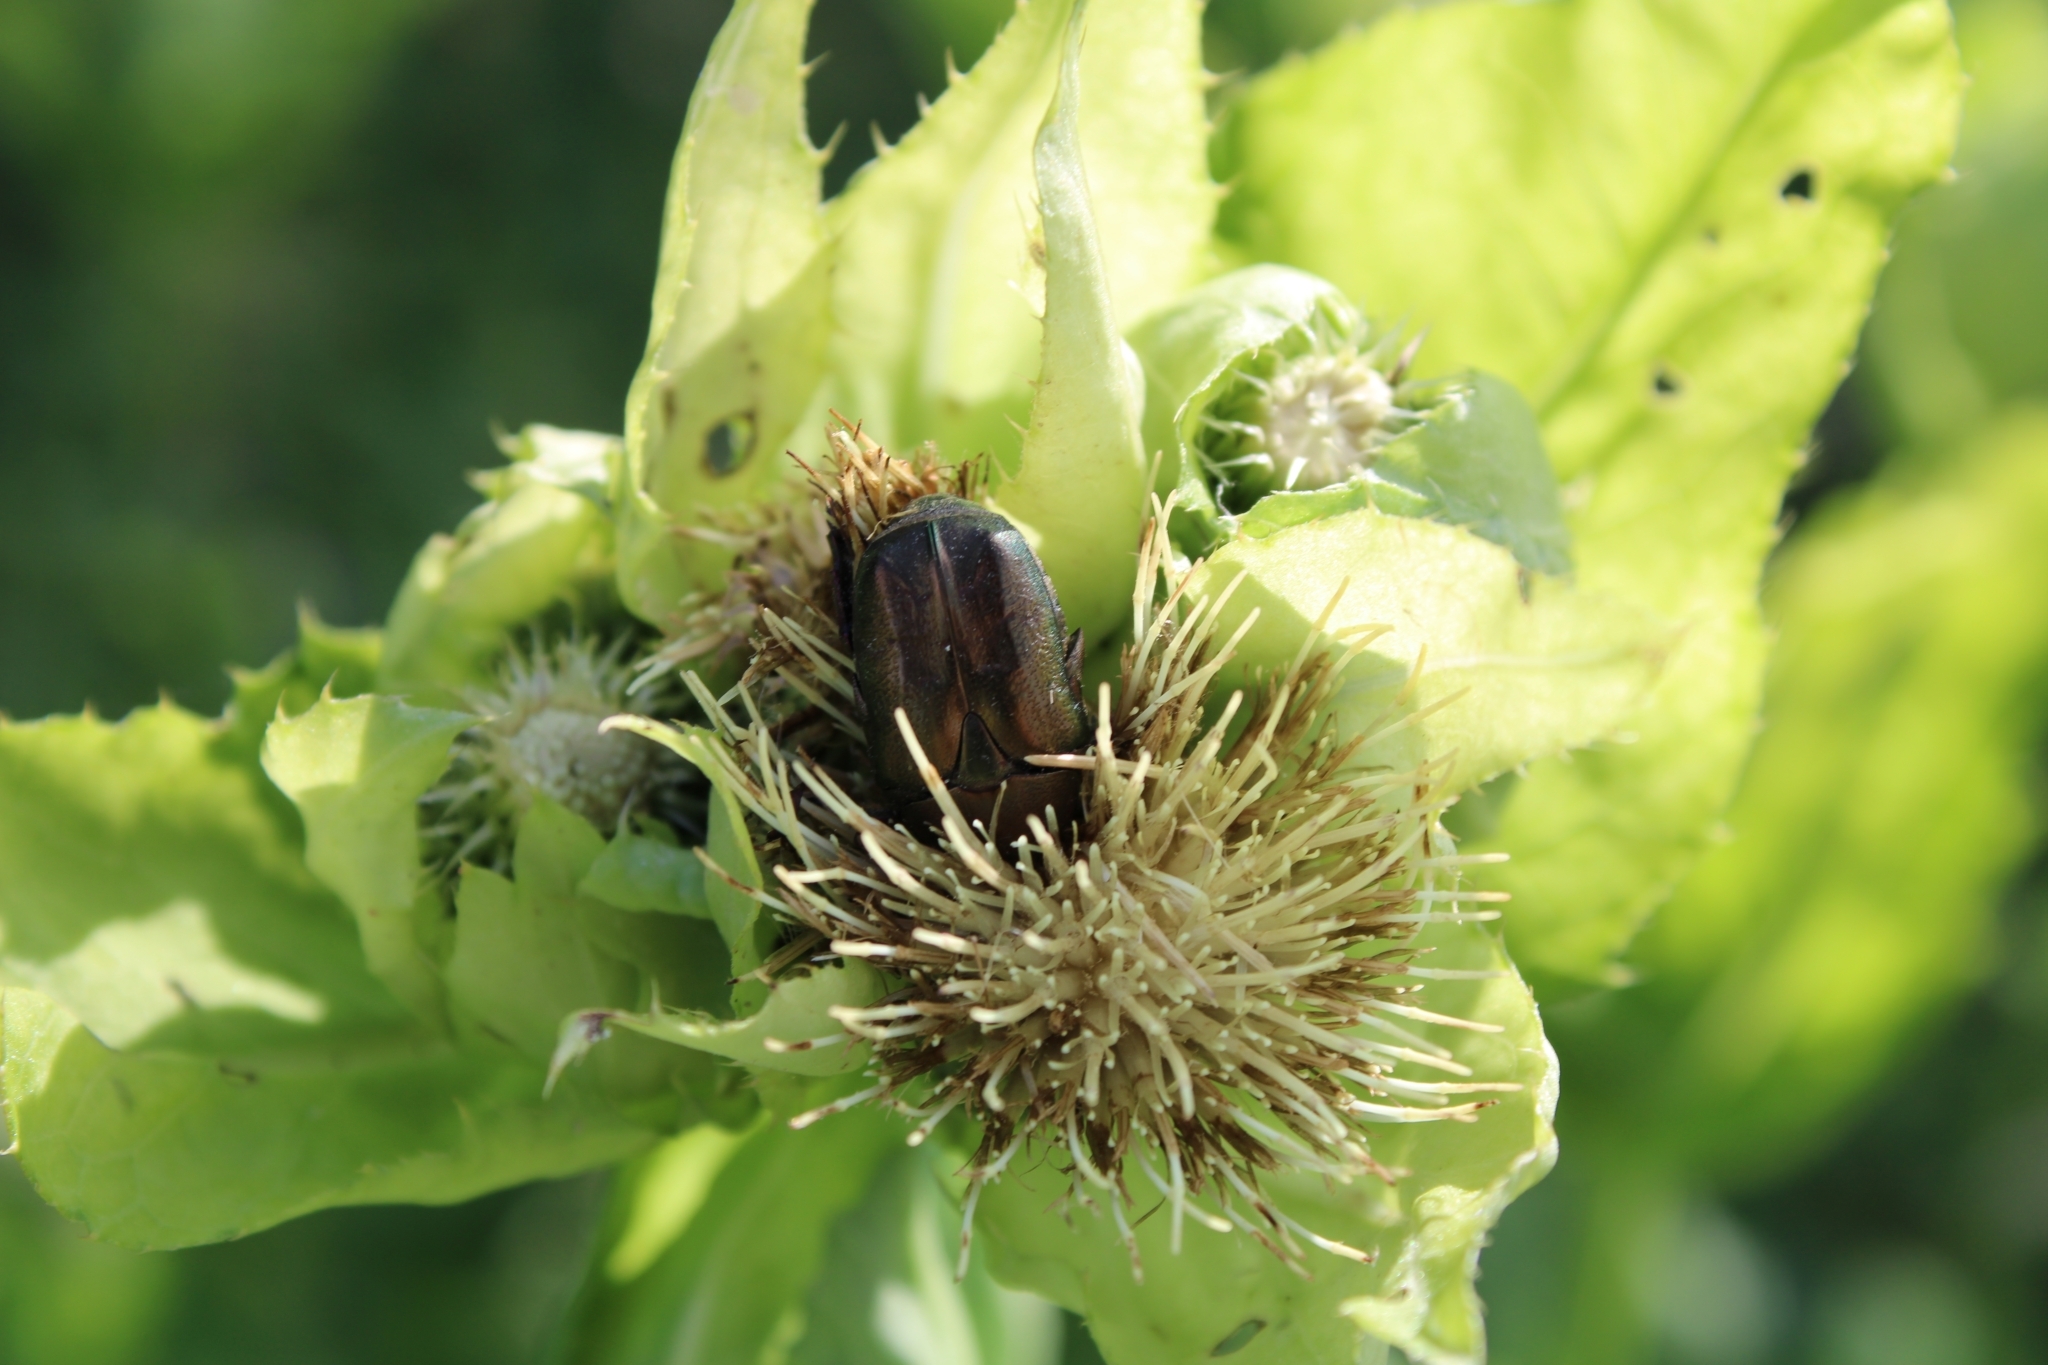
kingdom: Plantae
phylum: Tracheophyta
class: Magnoliopsida
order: Asterales
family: Asteraceae
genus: Cirsium
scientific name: Cirsium oleraceum
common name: Cabbage thistle
